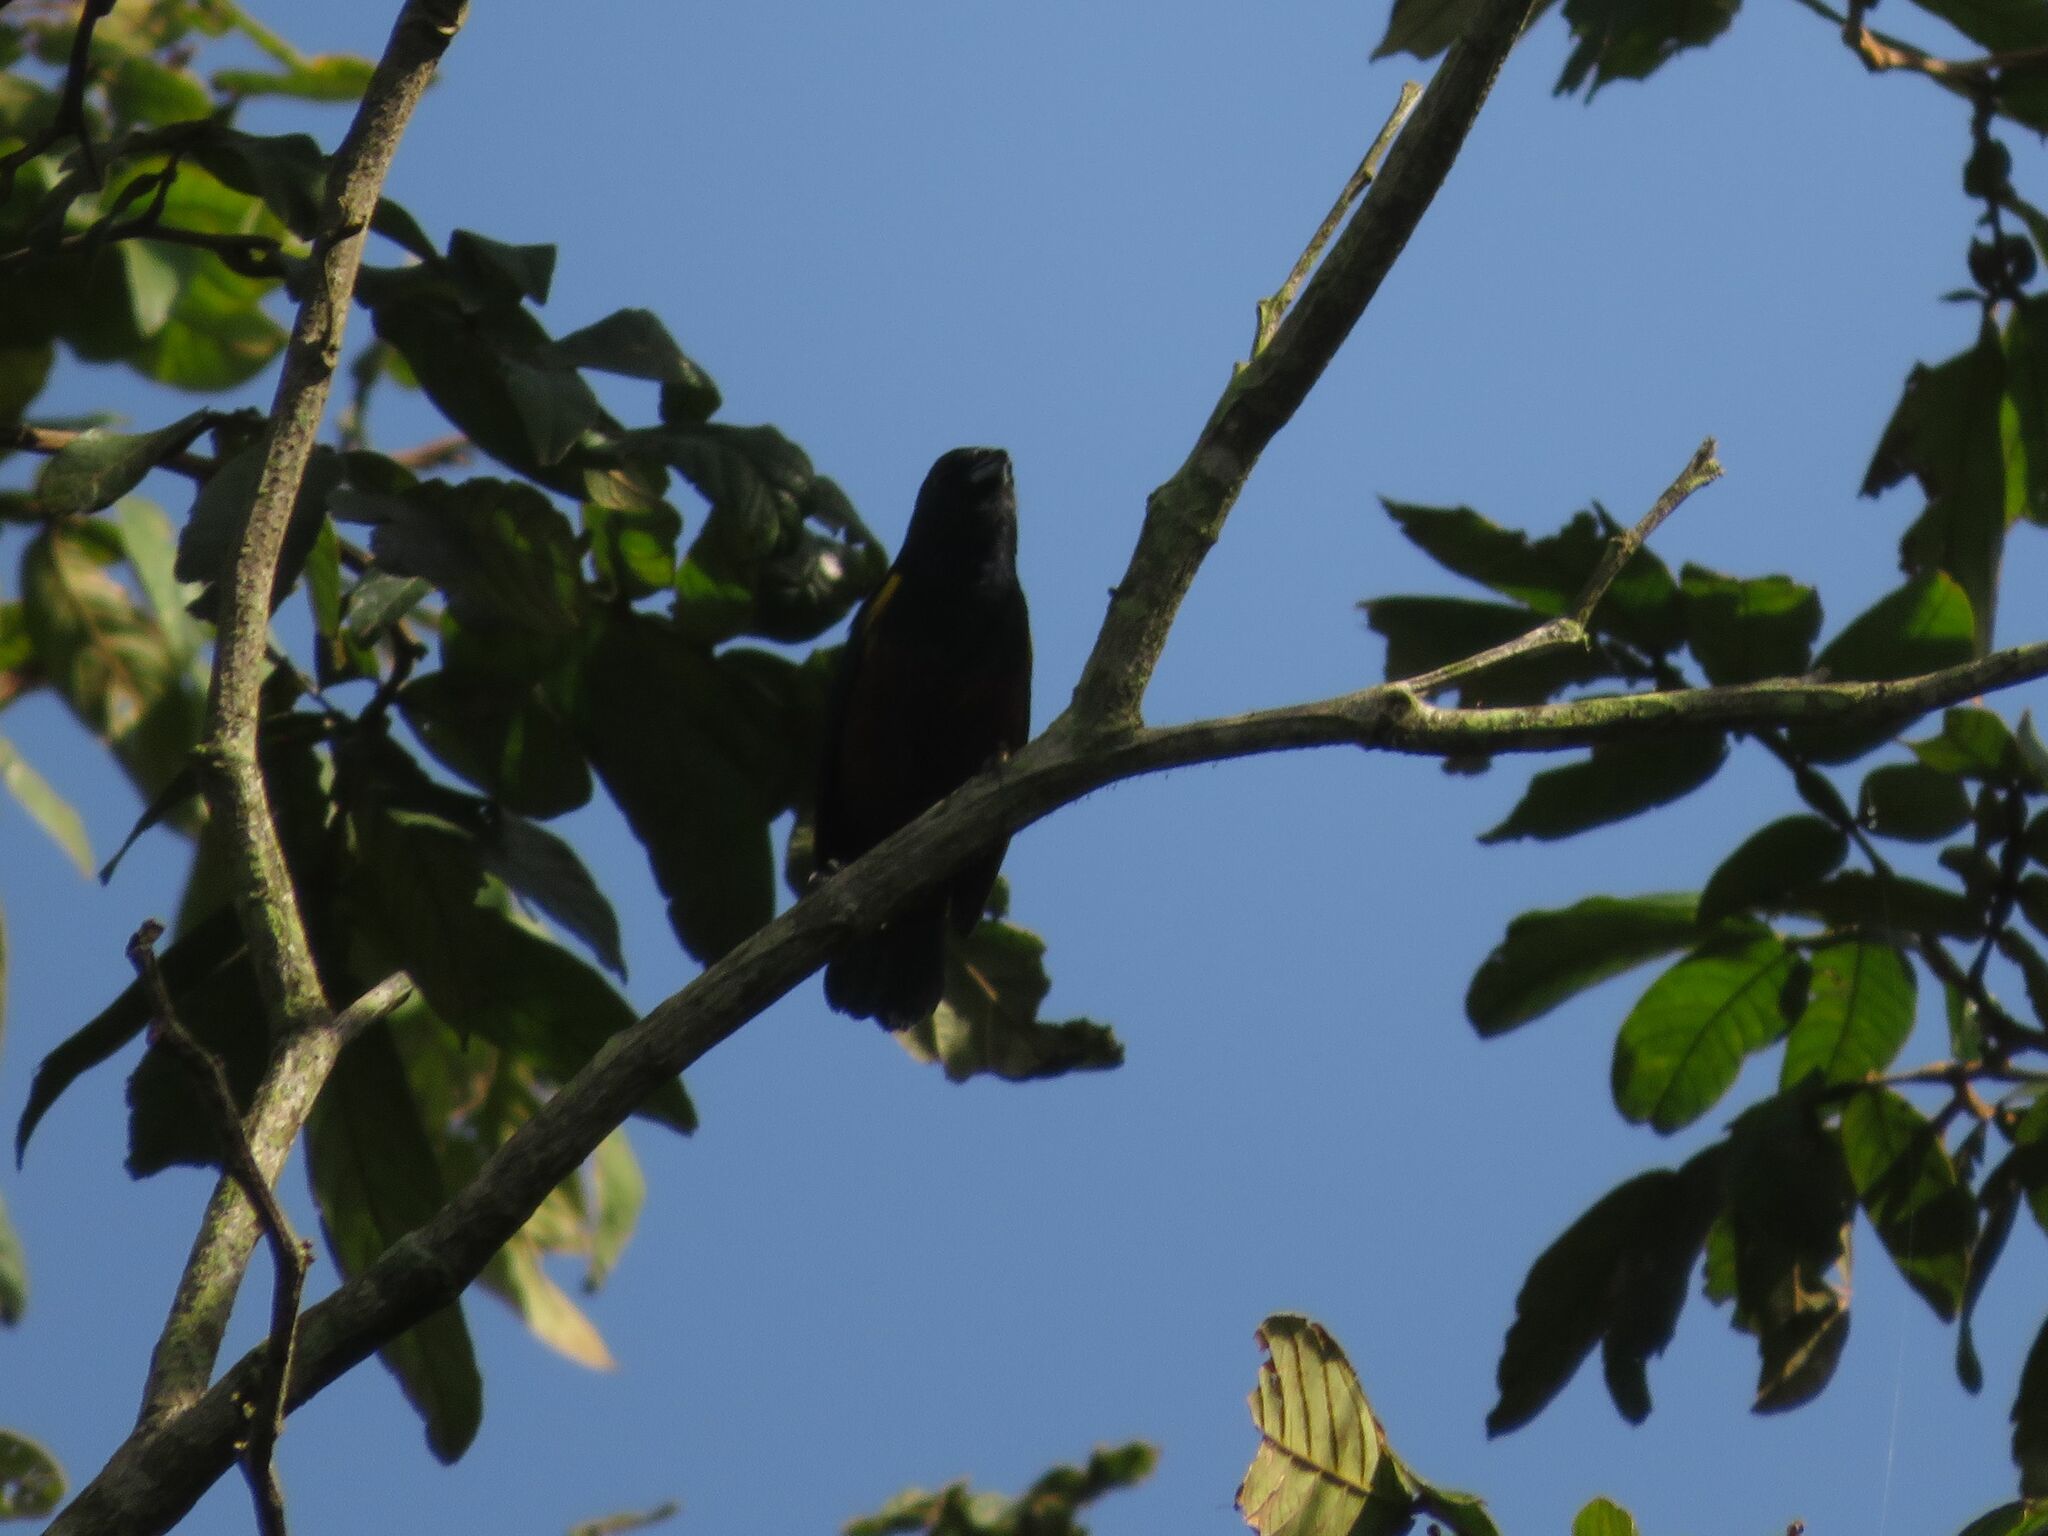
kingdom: Animalia
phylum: Chordata
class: Aves
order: Passeriformes
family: Fringillidae
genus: Euphonia
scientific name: Euphonia pectoralis
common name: Chestnut-bellied euphonia
